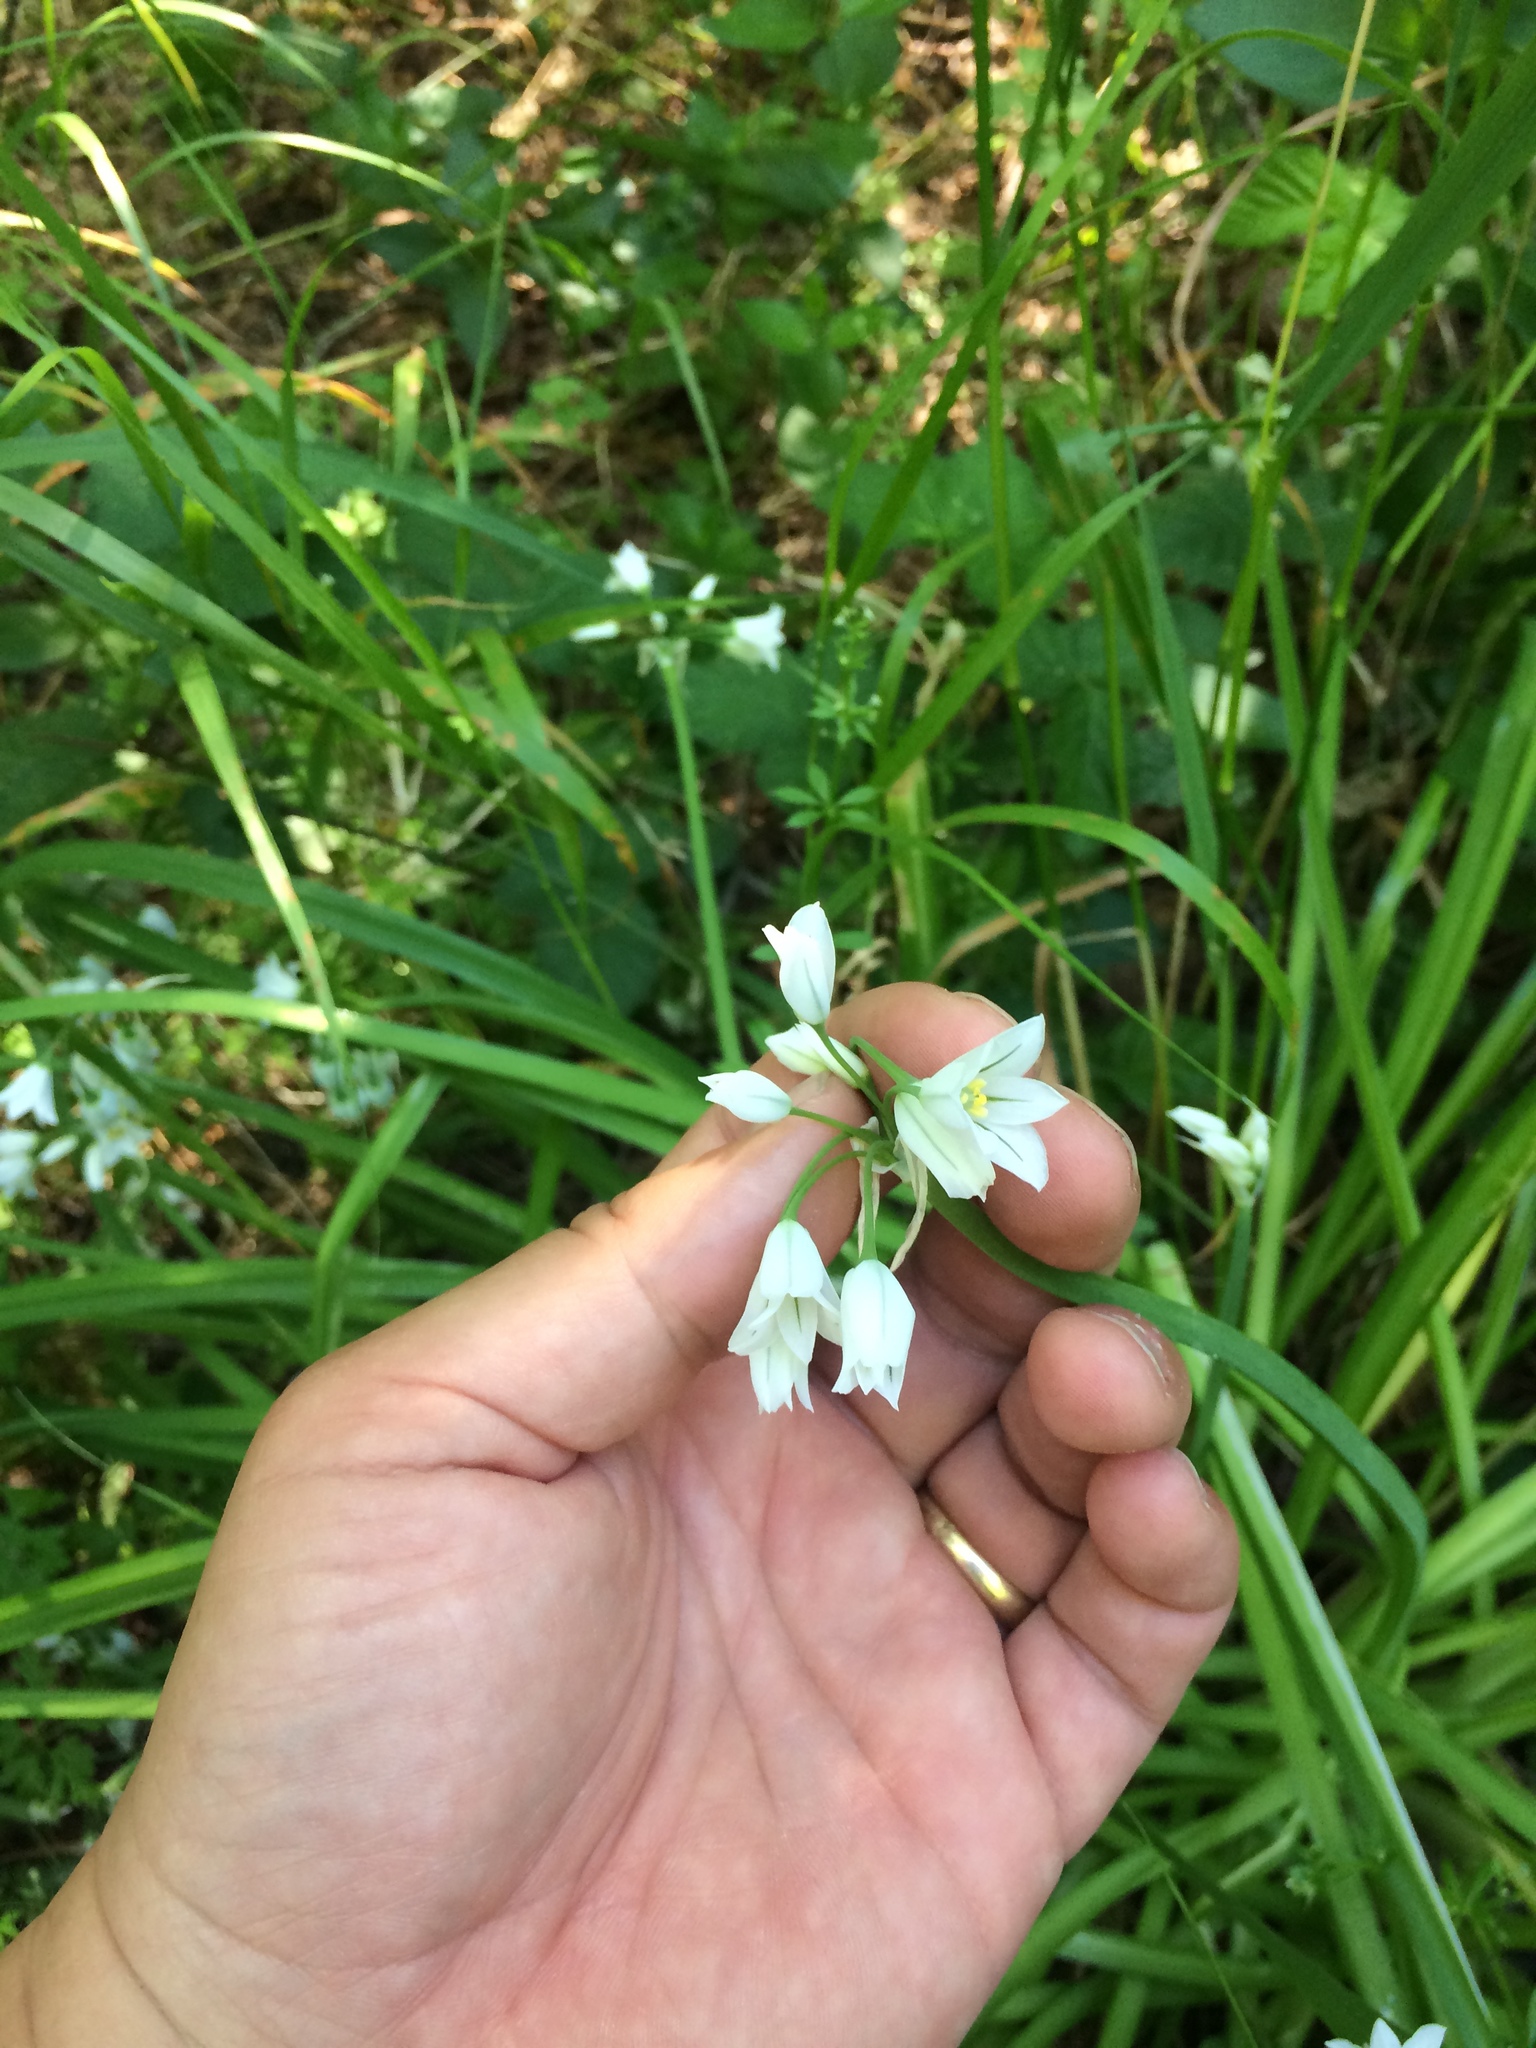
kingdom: Plantae
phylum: Tracheophyta
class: Liliopsida
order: Asparagales
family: Amaryllidaceae
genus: Allium
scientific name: Allium triquetrum
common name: Three-cornered garlic
